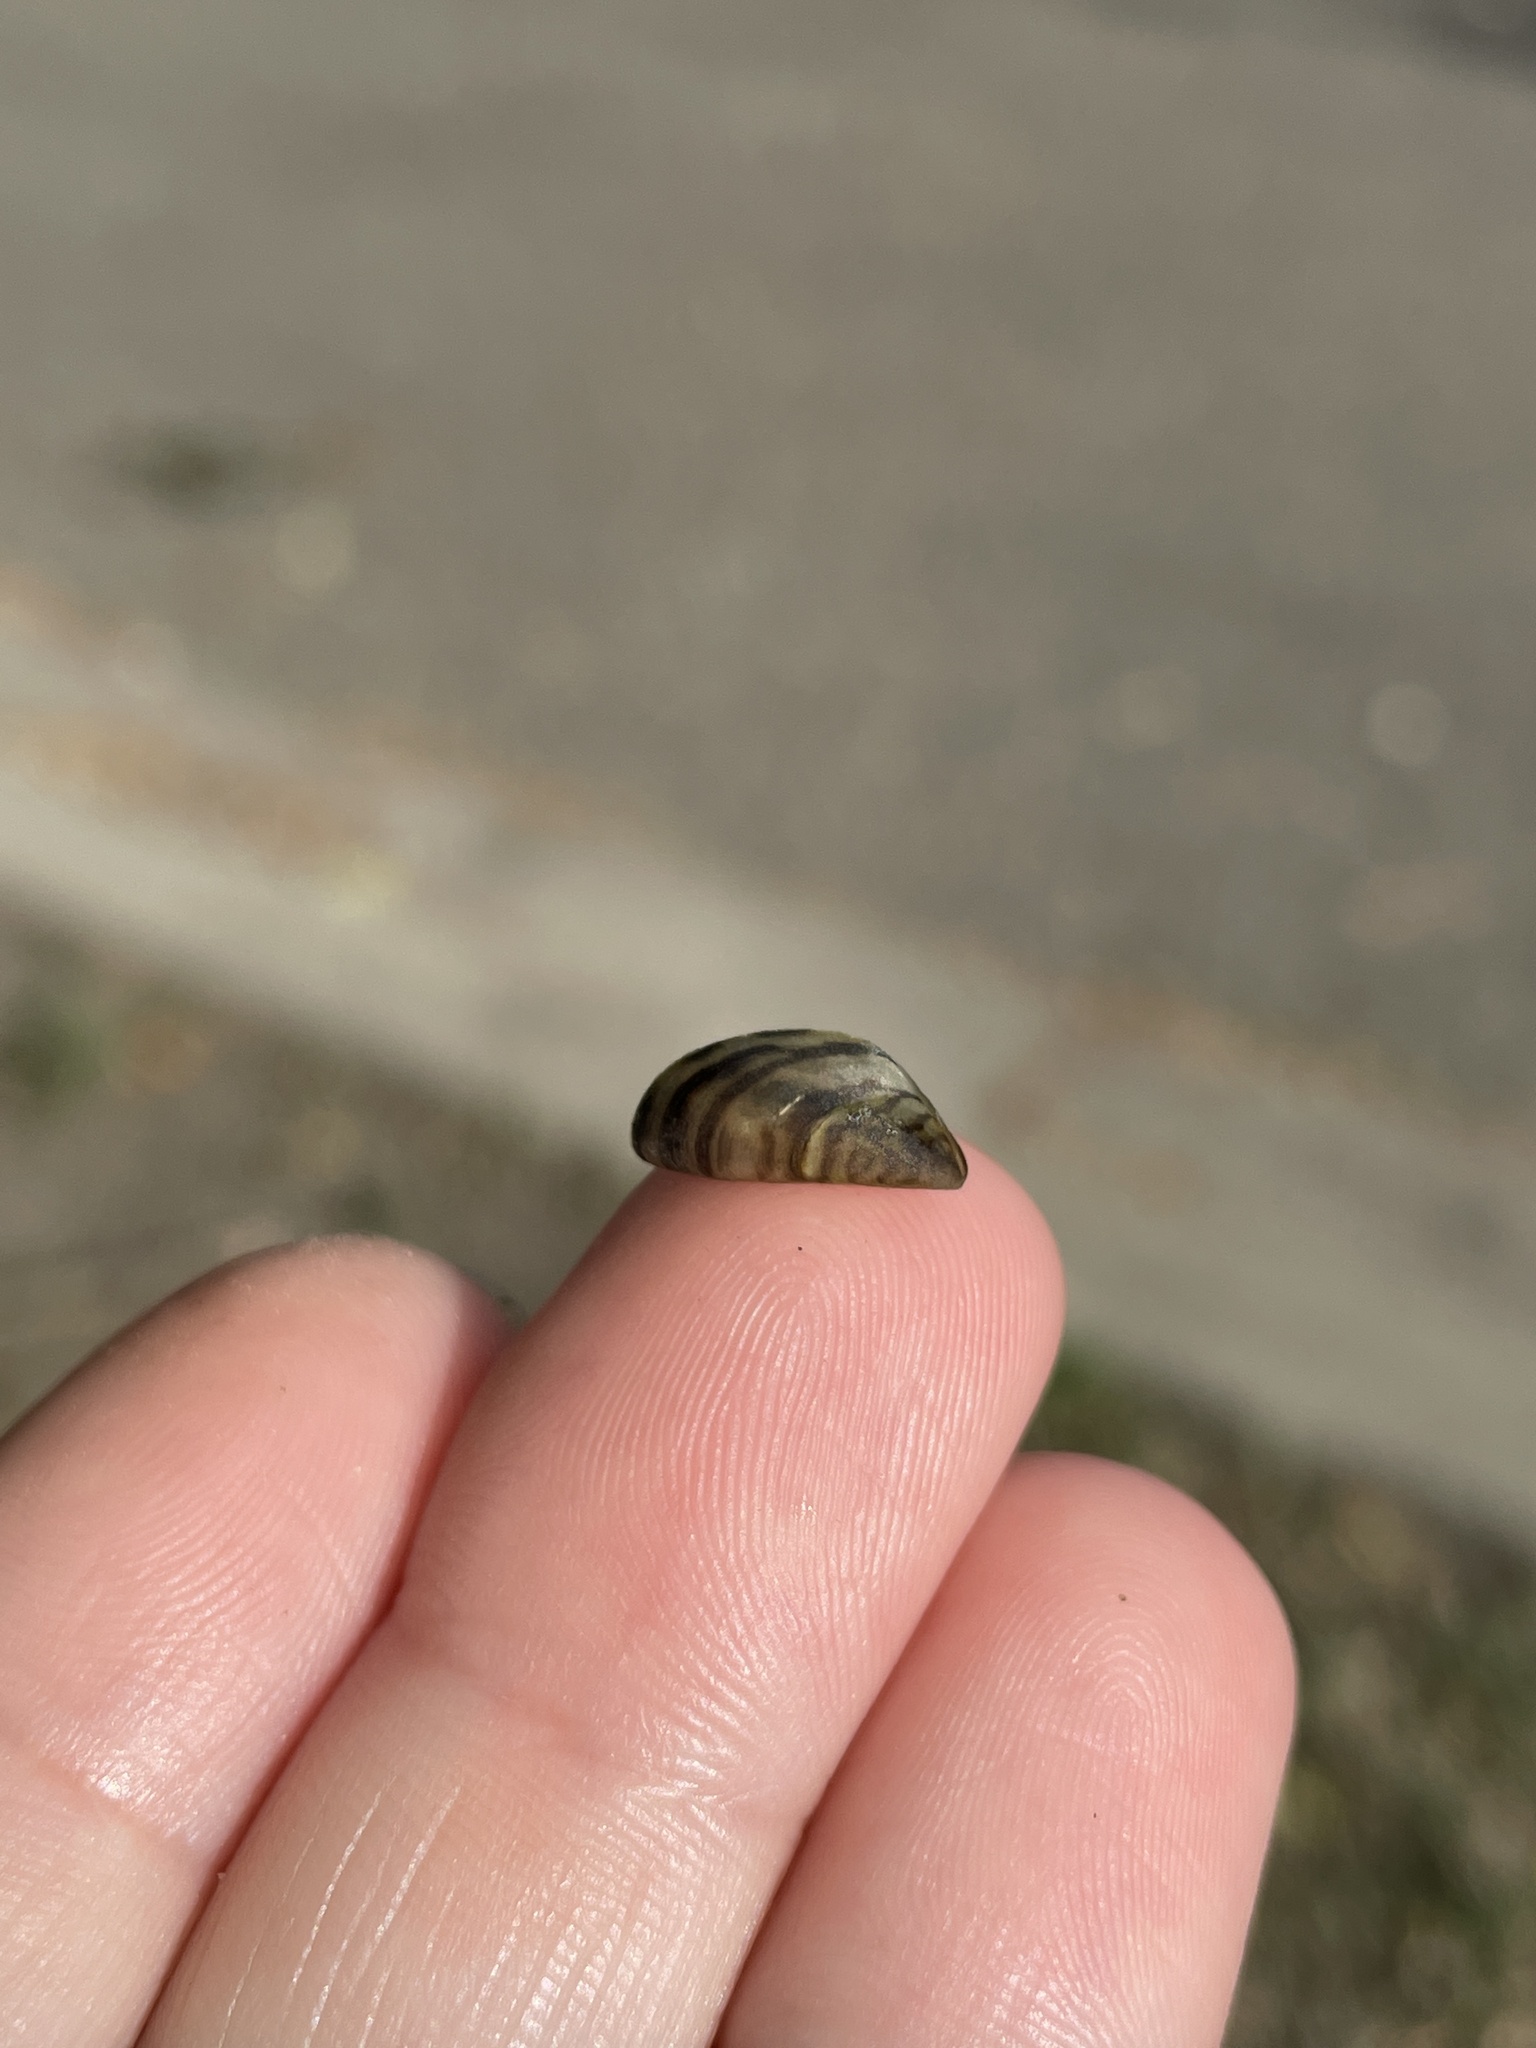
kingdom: Animalia
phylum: Mollusca
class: Bivalvia
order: Myida
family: Dreissenidae
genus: Dreissena
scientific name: Dreissena polymorpha
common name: Zebra mussel
